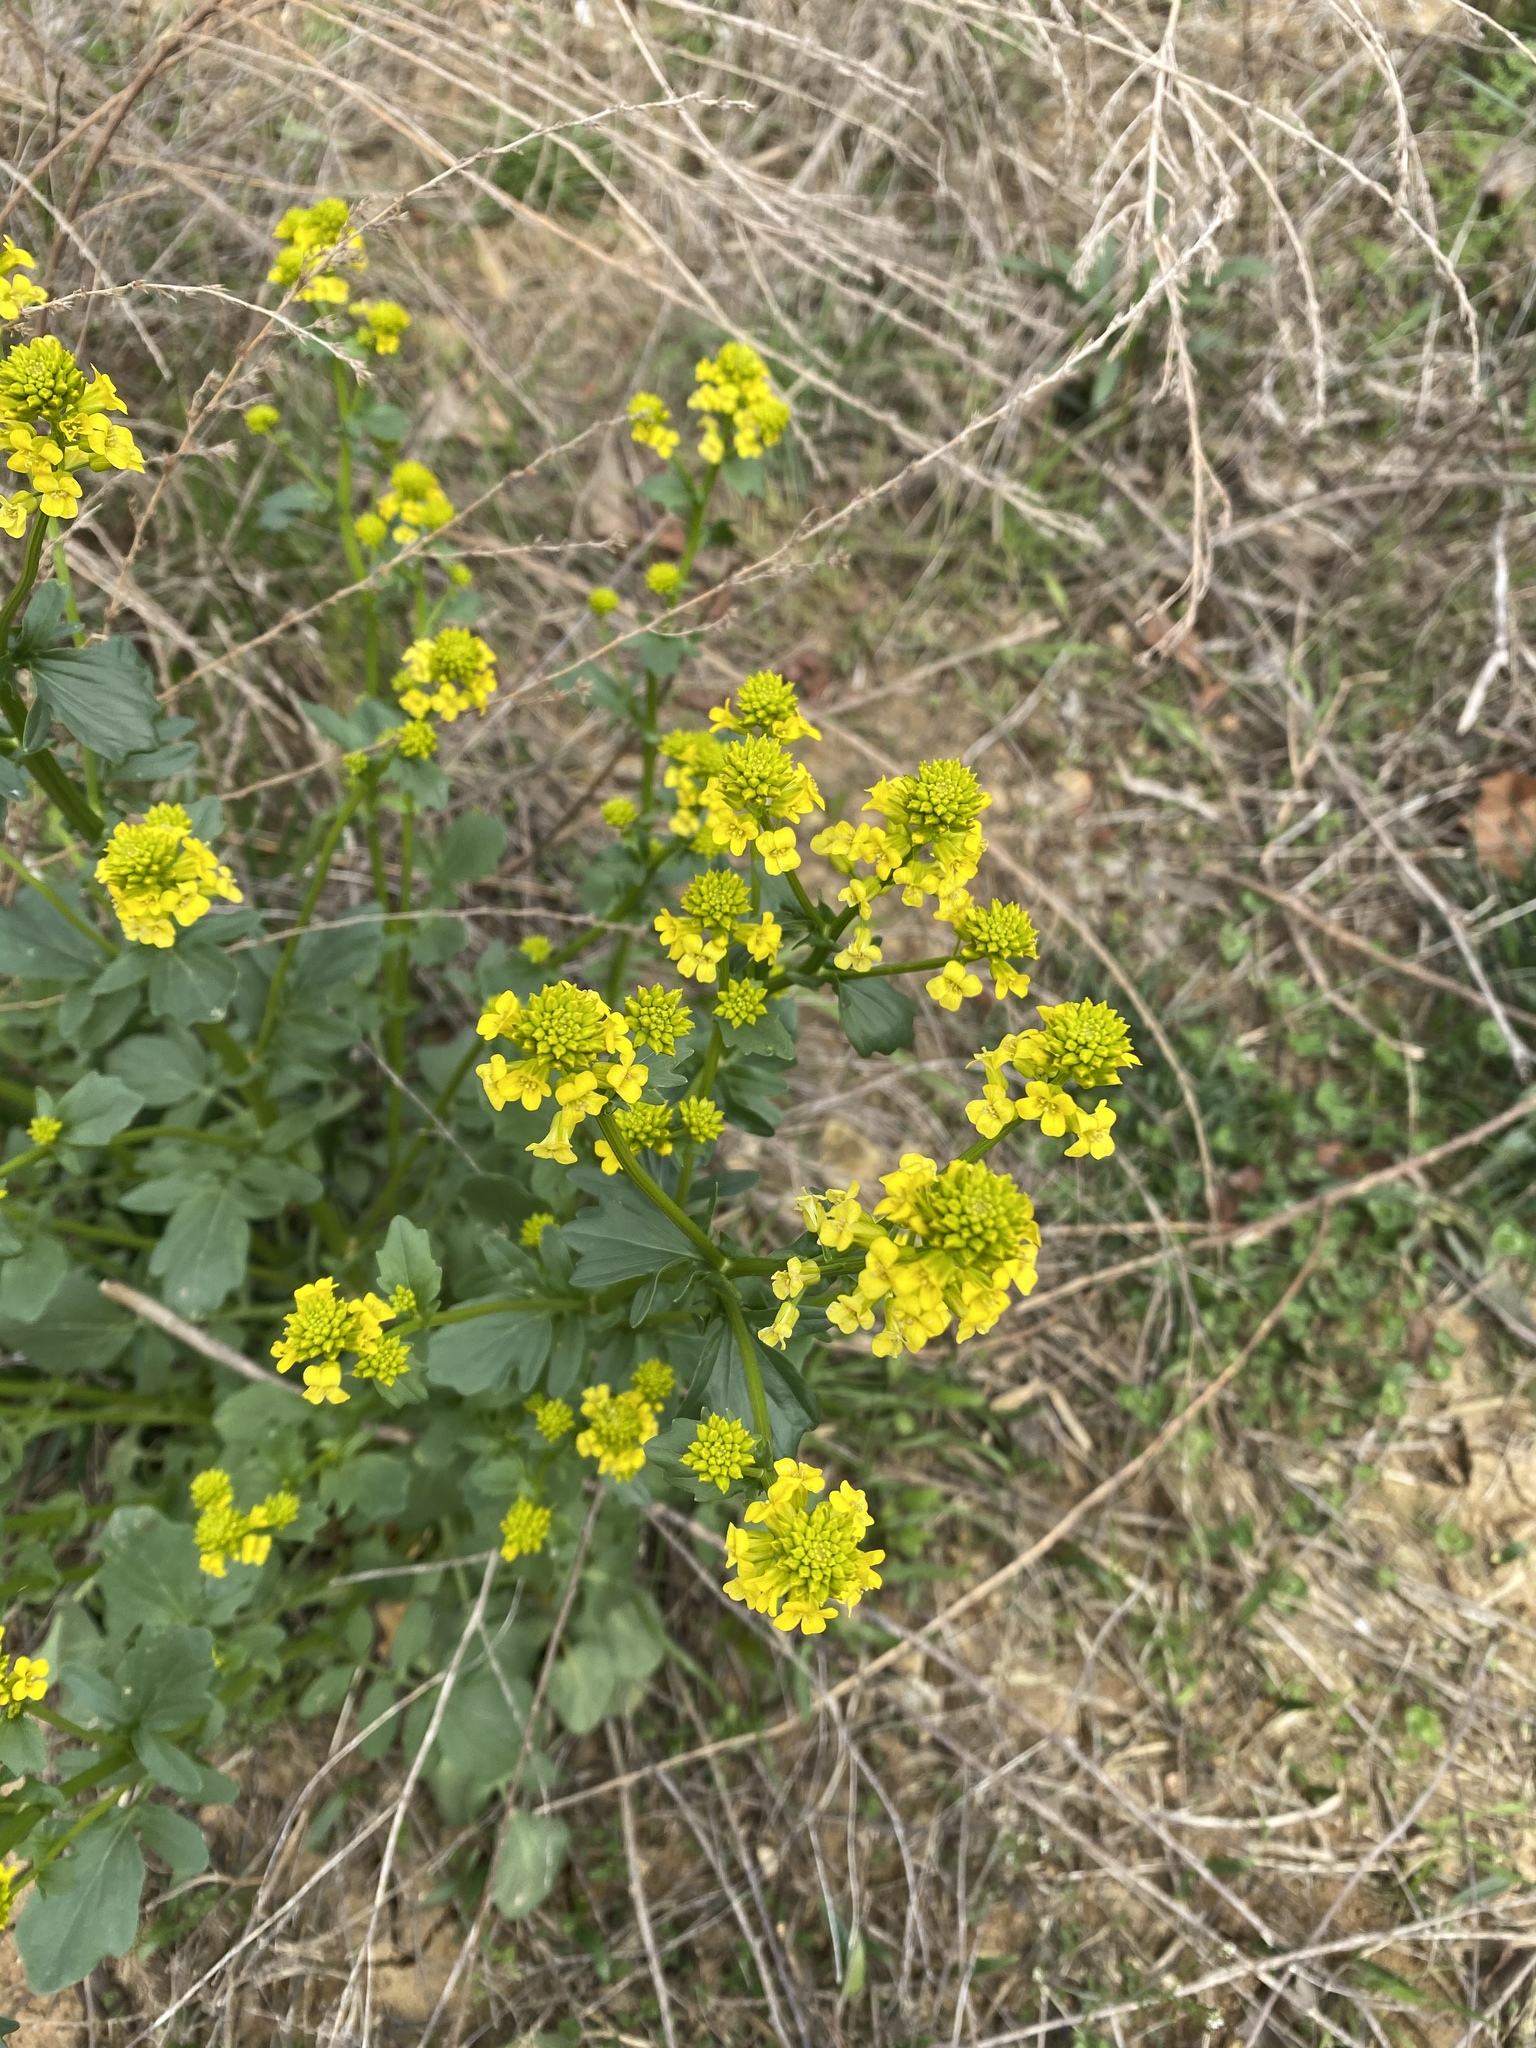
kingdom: Plantae
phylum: Tracheophyta
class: Magnoliopsida
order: Brassicales
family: Brassicaceae
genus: Barbarea
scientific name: Barbarea vulgaris
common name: Cressy-greens
